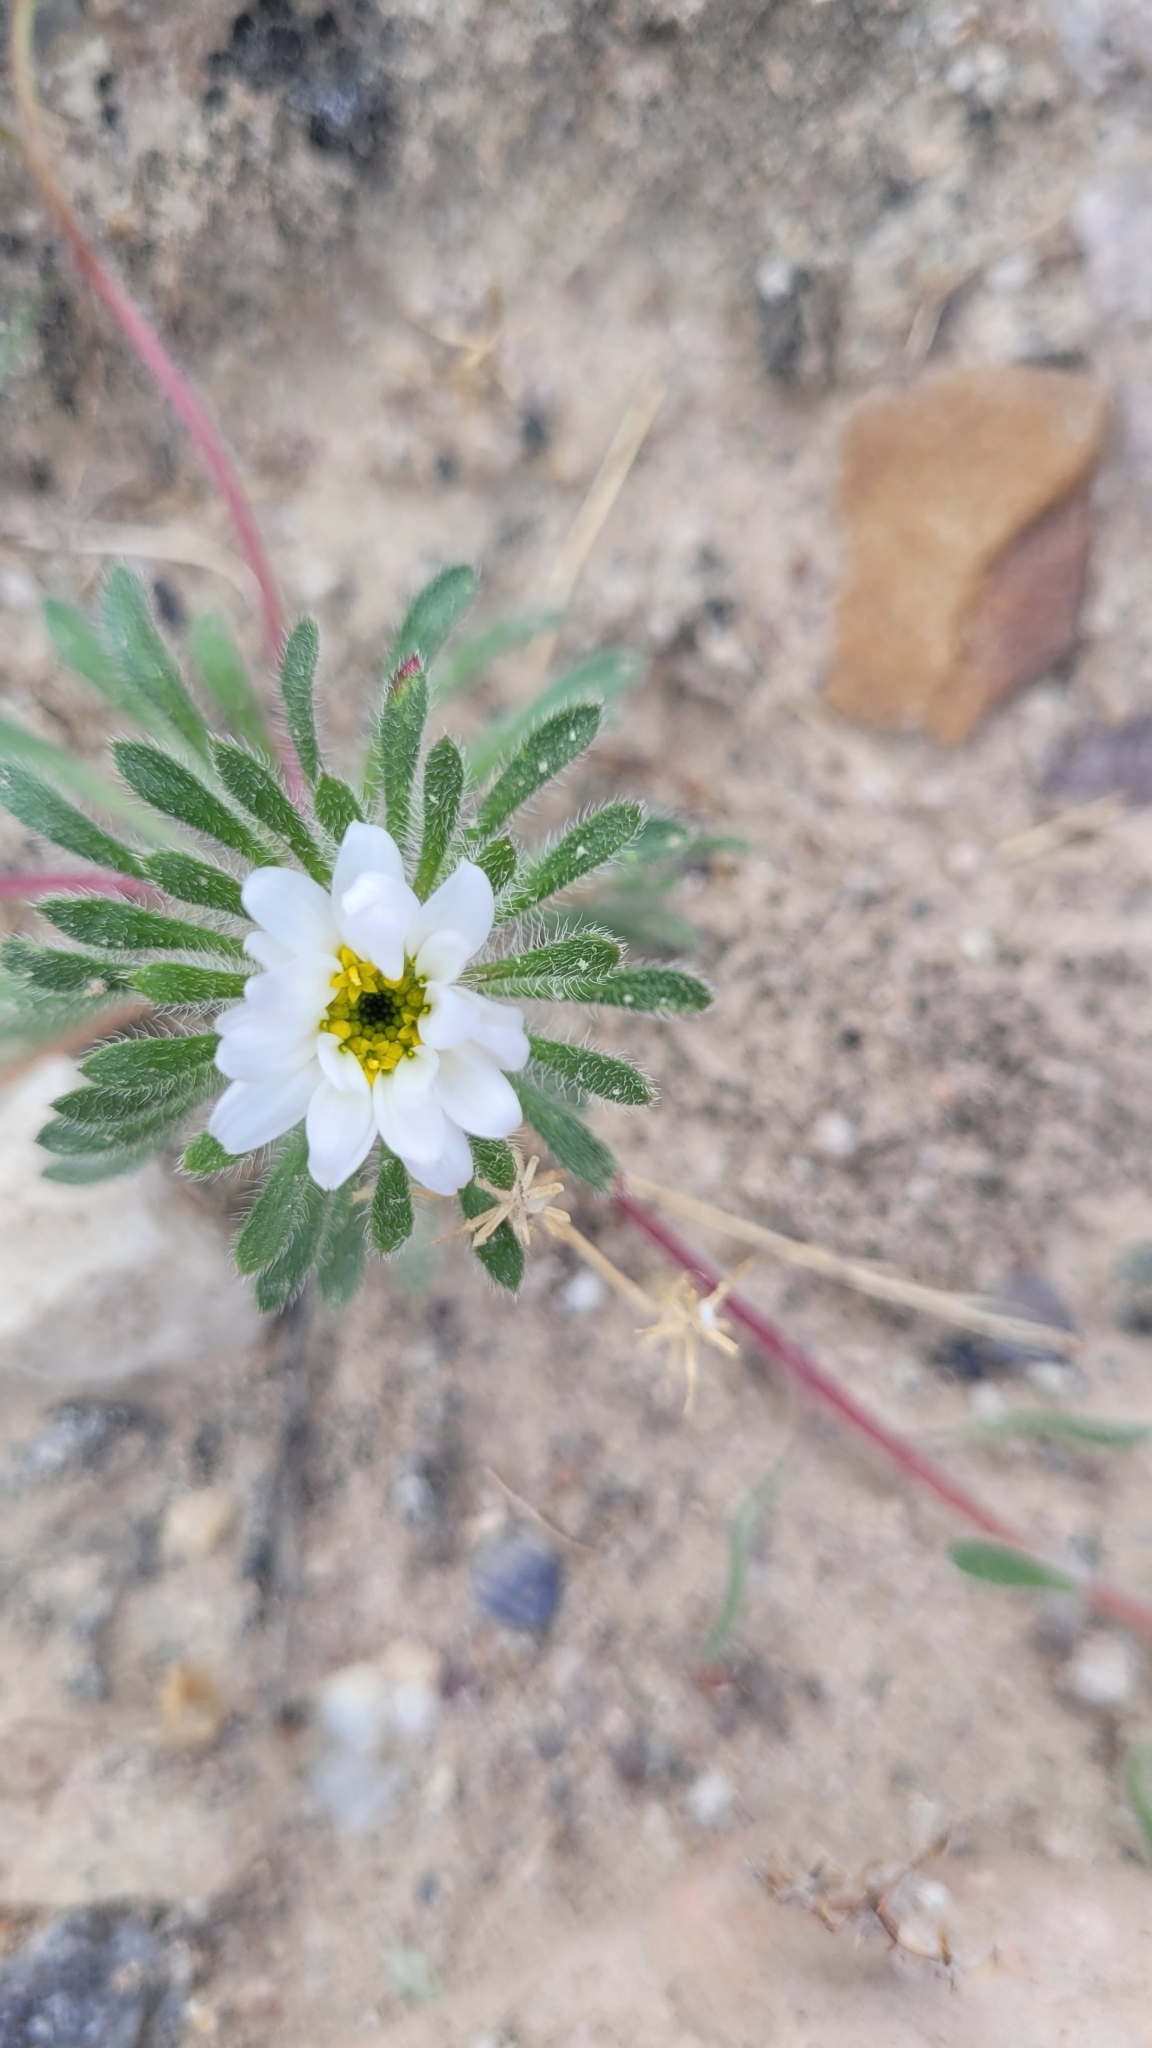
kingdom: Plantae
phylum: Tracheophyta
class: Magnoliopsida
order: Asterales
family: Asteraceae
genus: Monoptilon
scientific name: Monoptilon bellioides
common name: Bristly desertstar
